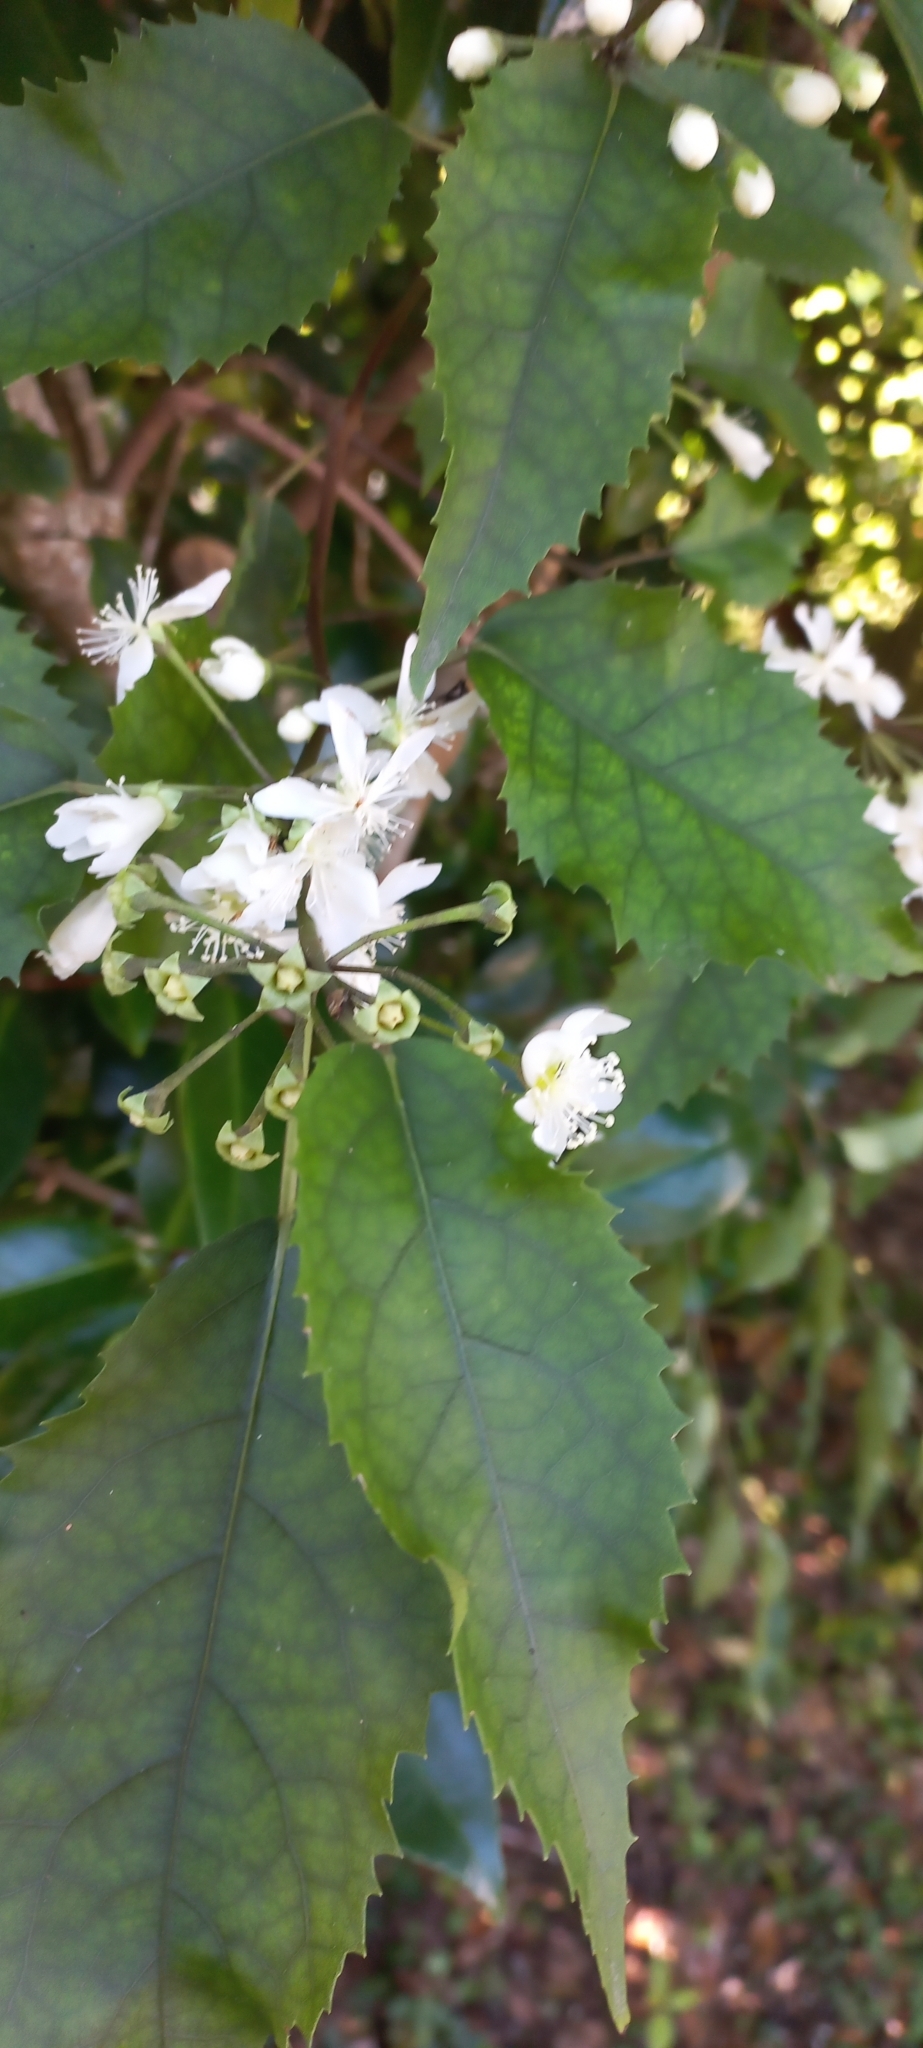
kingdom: Plantae
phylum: Tracheophyta
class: Magnoliopsida
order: Malvales
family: Malvaceae
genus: Hoheria
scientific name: Hoheria populnea
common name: Lacebark
